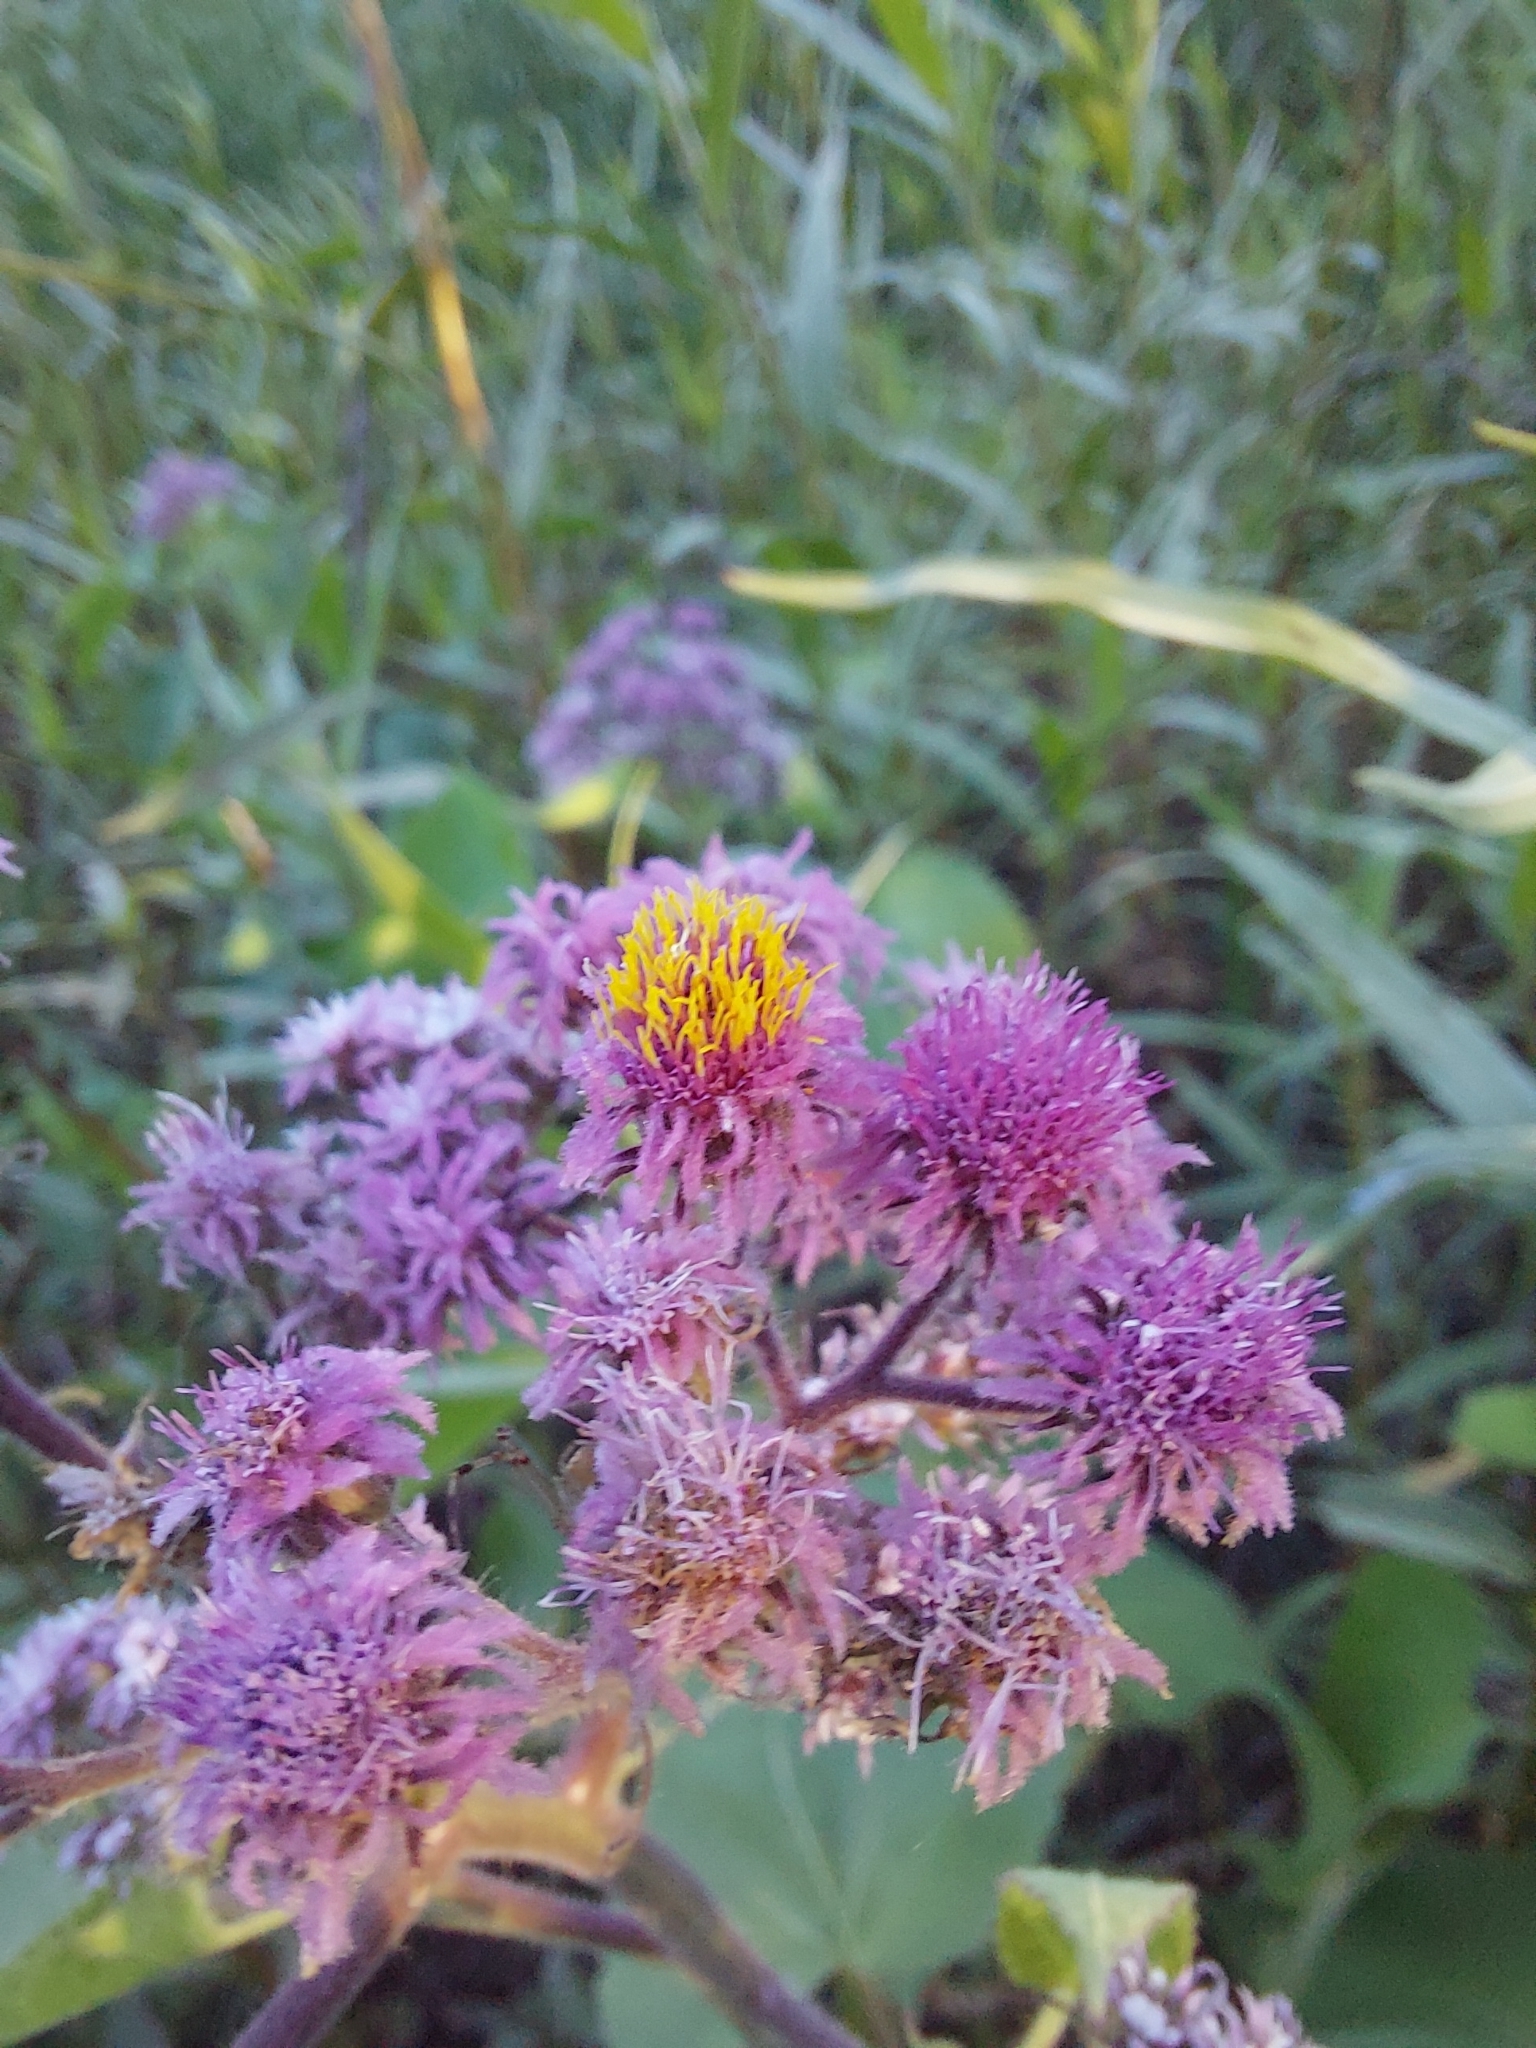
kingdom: Plantae
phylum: Tracheophyta
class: Magnoliopsida
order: Asterales
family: Asteraceae
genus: Urolepis
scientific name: Urolepis hecatantha
